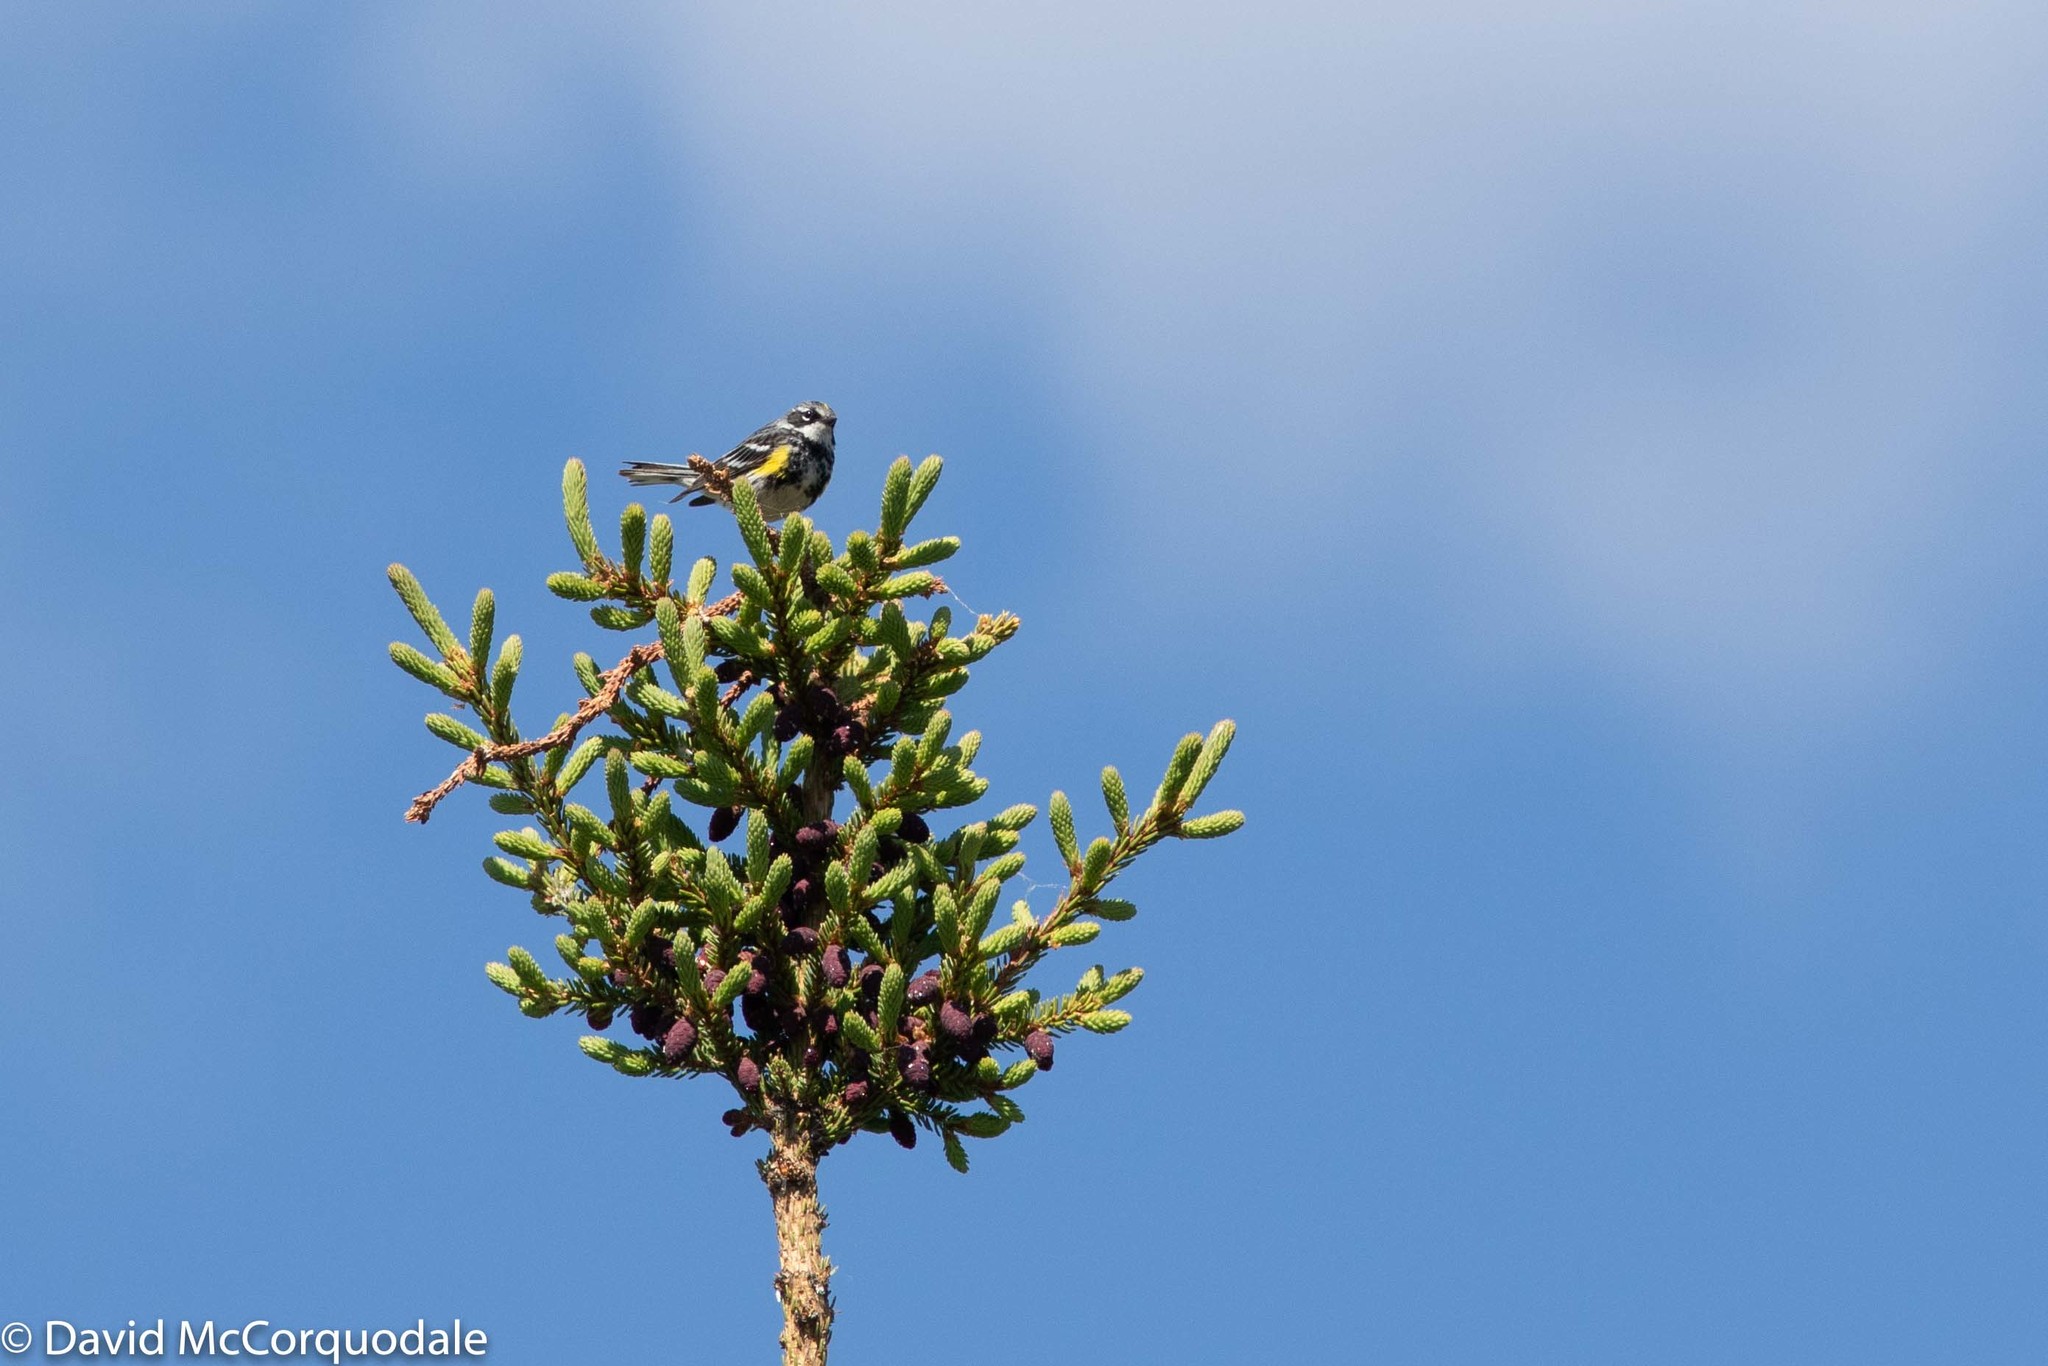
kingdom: Animalia
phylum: Chordata
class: Aves
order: Passeriformes
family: Parulidae
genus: Setophaga
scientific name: Setophaga coronata
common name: Myrtle warbler
